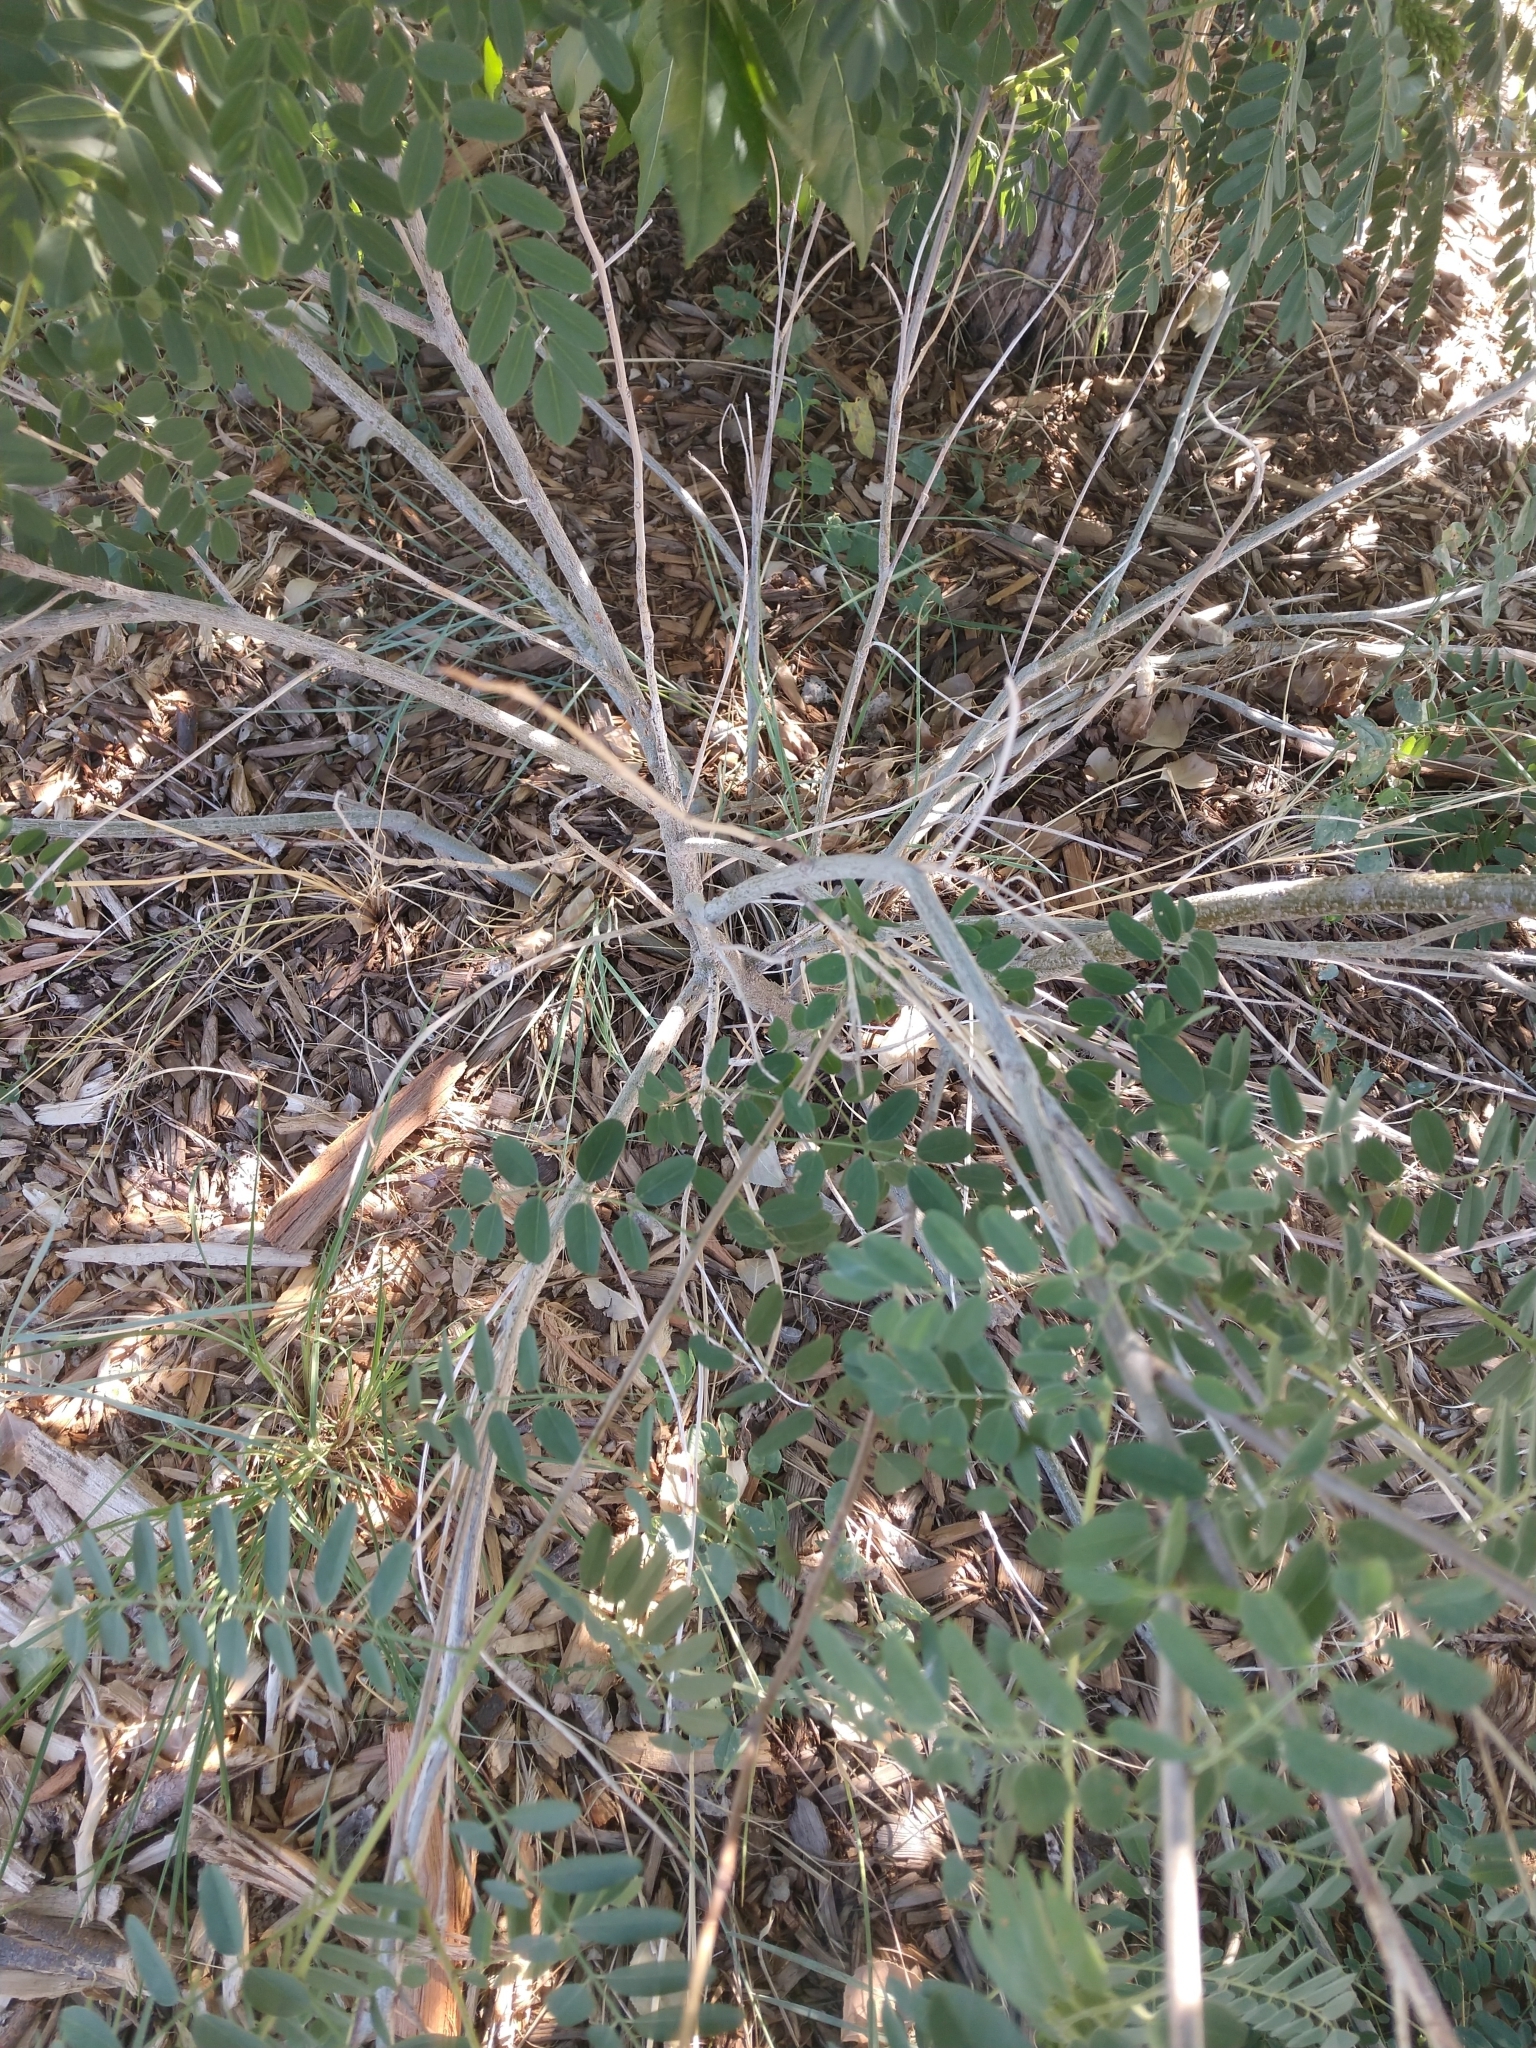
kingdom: Plantae
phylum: Tracheophyta
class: Magnoliopsida
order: Fabales
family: Fabaceae
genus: Amorpha
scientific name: Amorpha fruticosa
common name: False indigo
